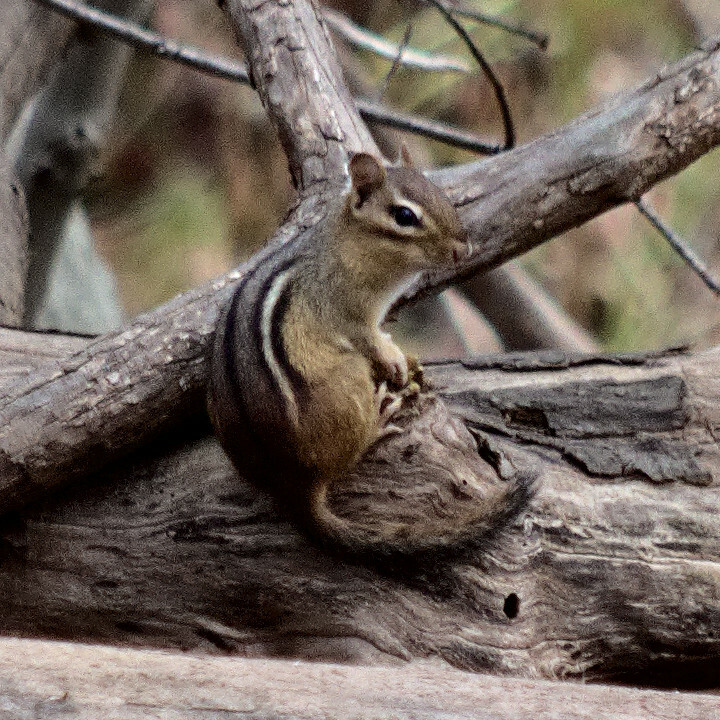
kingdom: Animalia
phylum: Chordata
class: Mammalia
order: Rodentia
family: Sciuridae
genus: Tamias
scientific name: Tamias striatus
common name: Eastern chipmunk
